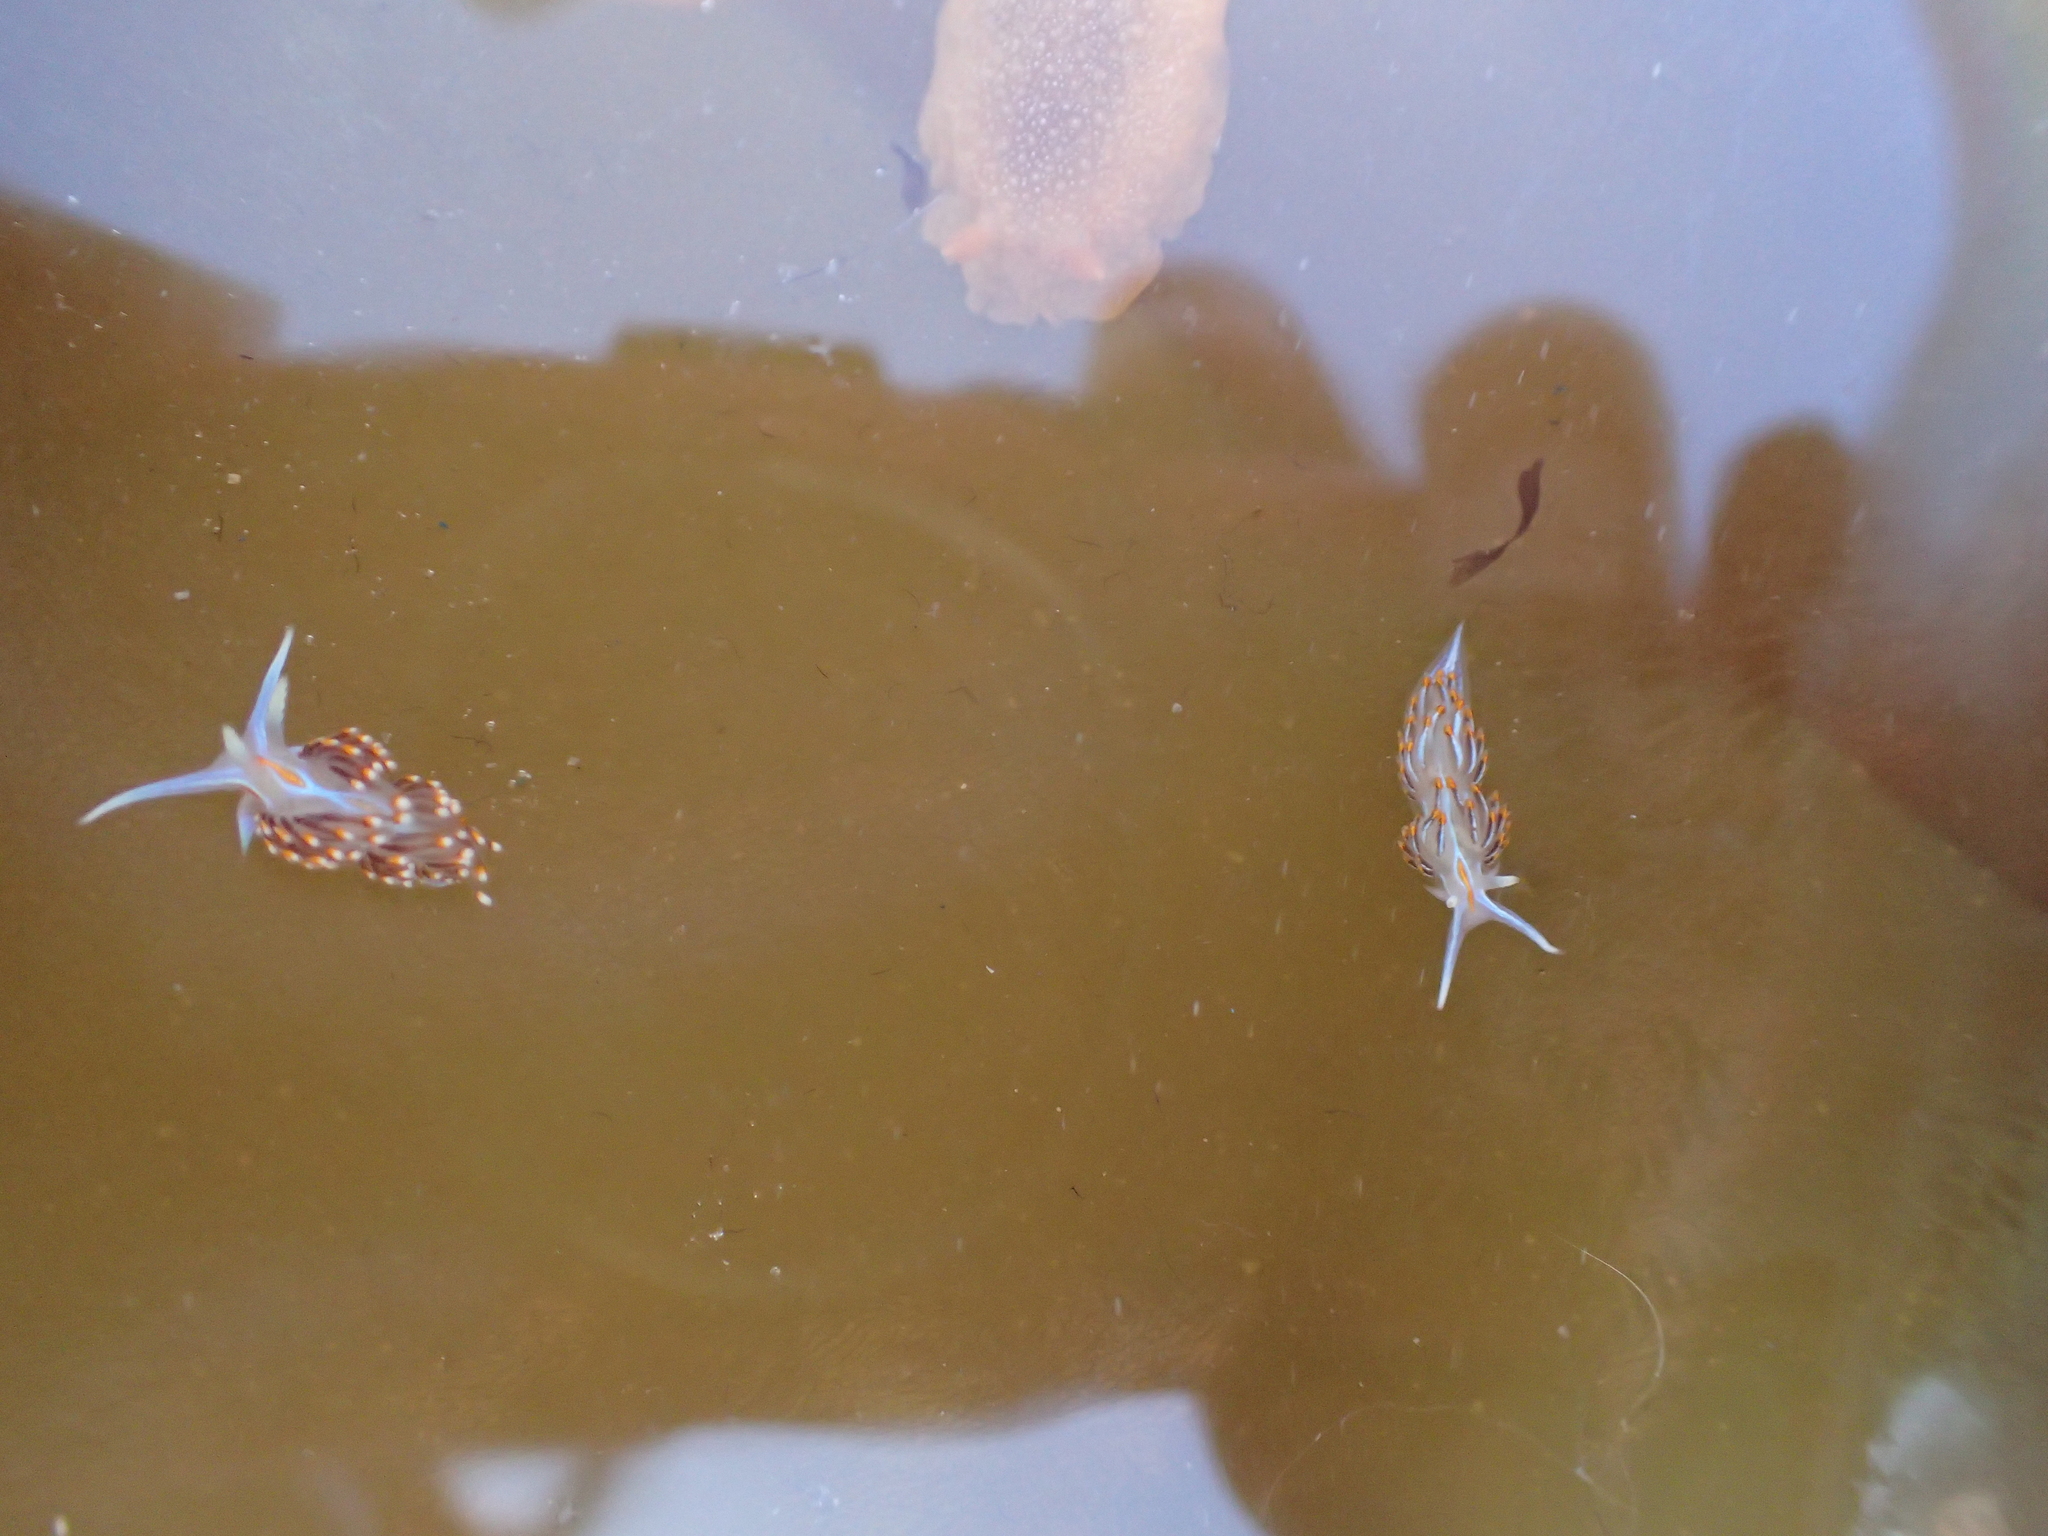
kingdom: Animalia
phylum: Mollusca
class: Gastropoda
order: Nudibranchia
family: Myrrhinidae
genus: Hermissenda
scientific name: Hermissenda crassicornis
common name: Hermissenda
